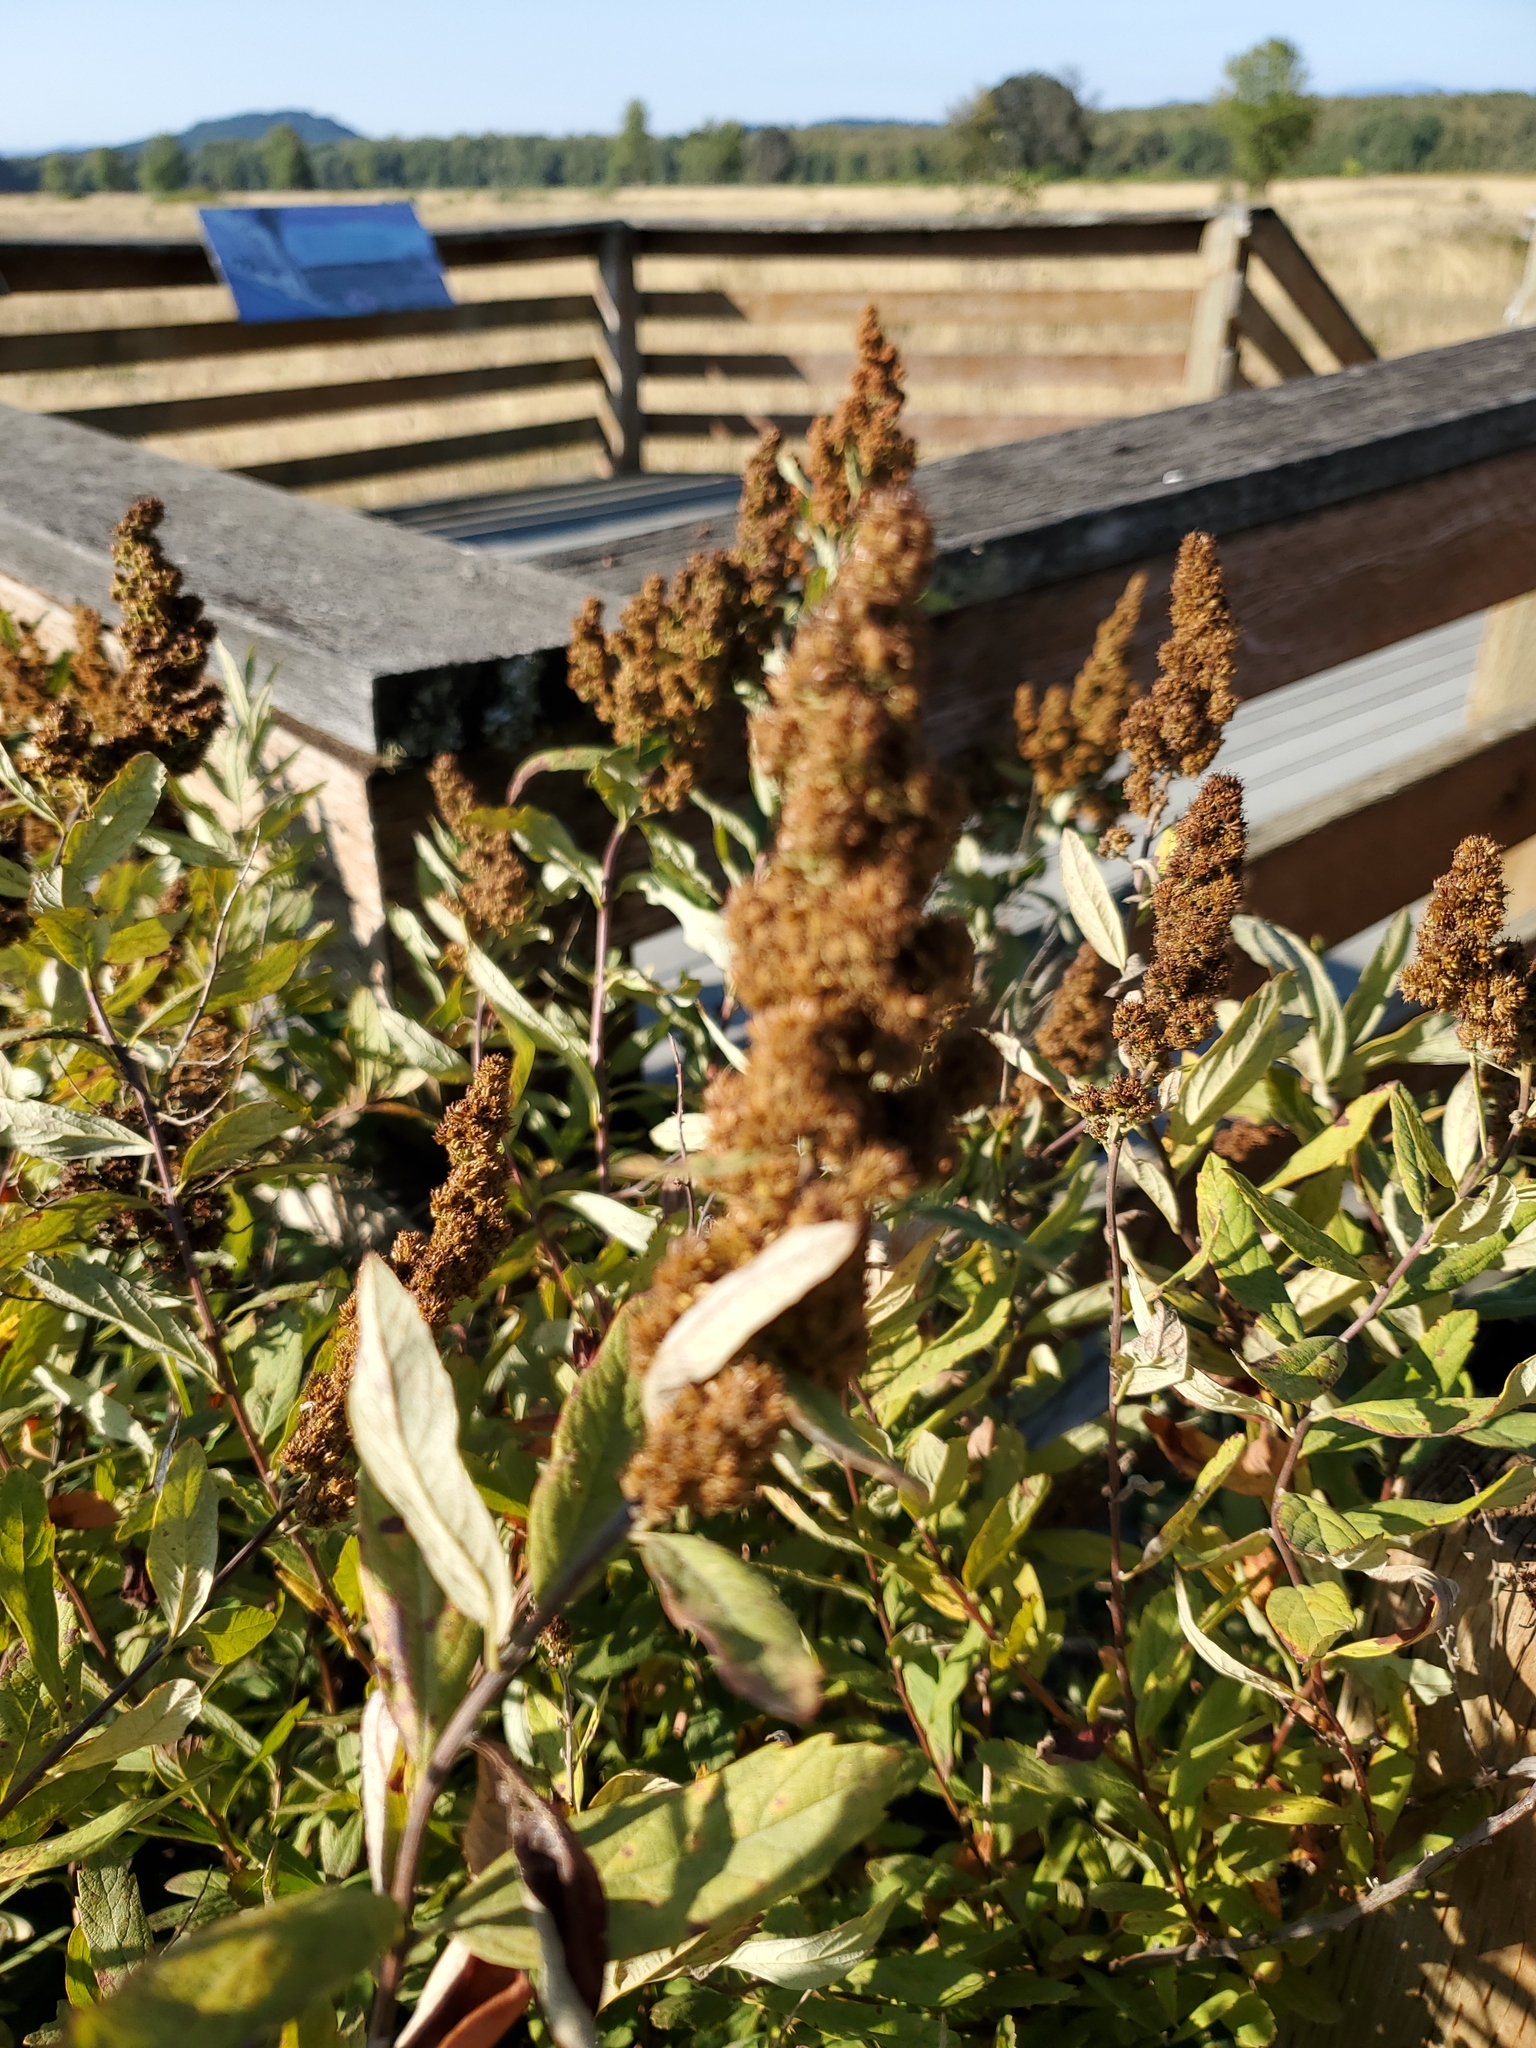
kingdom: Plantae
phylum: Tracheophyta
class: Magnoliopsida
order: Rosales
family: Rosaceae
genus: Spiraea
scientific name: Spiraea douglasii
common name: Steeplebush
